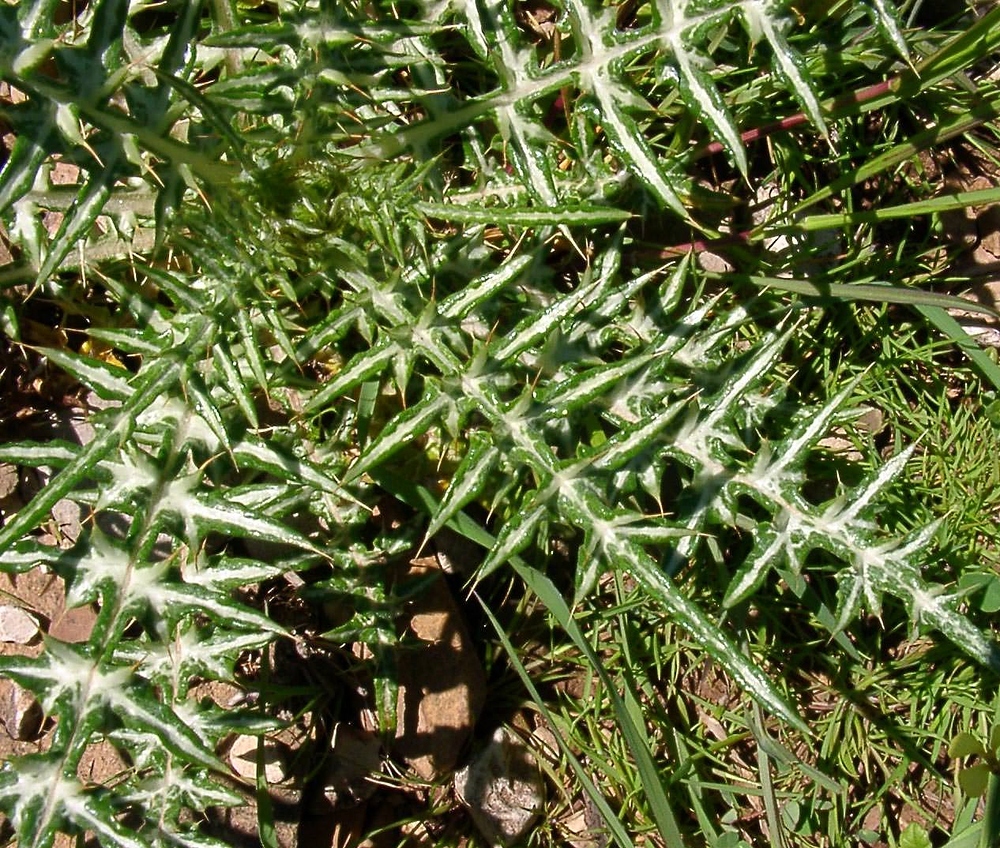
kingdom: Plantae
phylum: Tracheophyta
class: Magnoliopsida
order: Asterales
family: Asteraceae
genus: Galactites
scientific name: Galactites tomentosa
